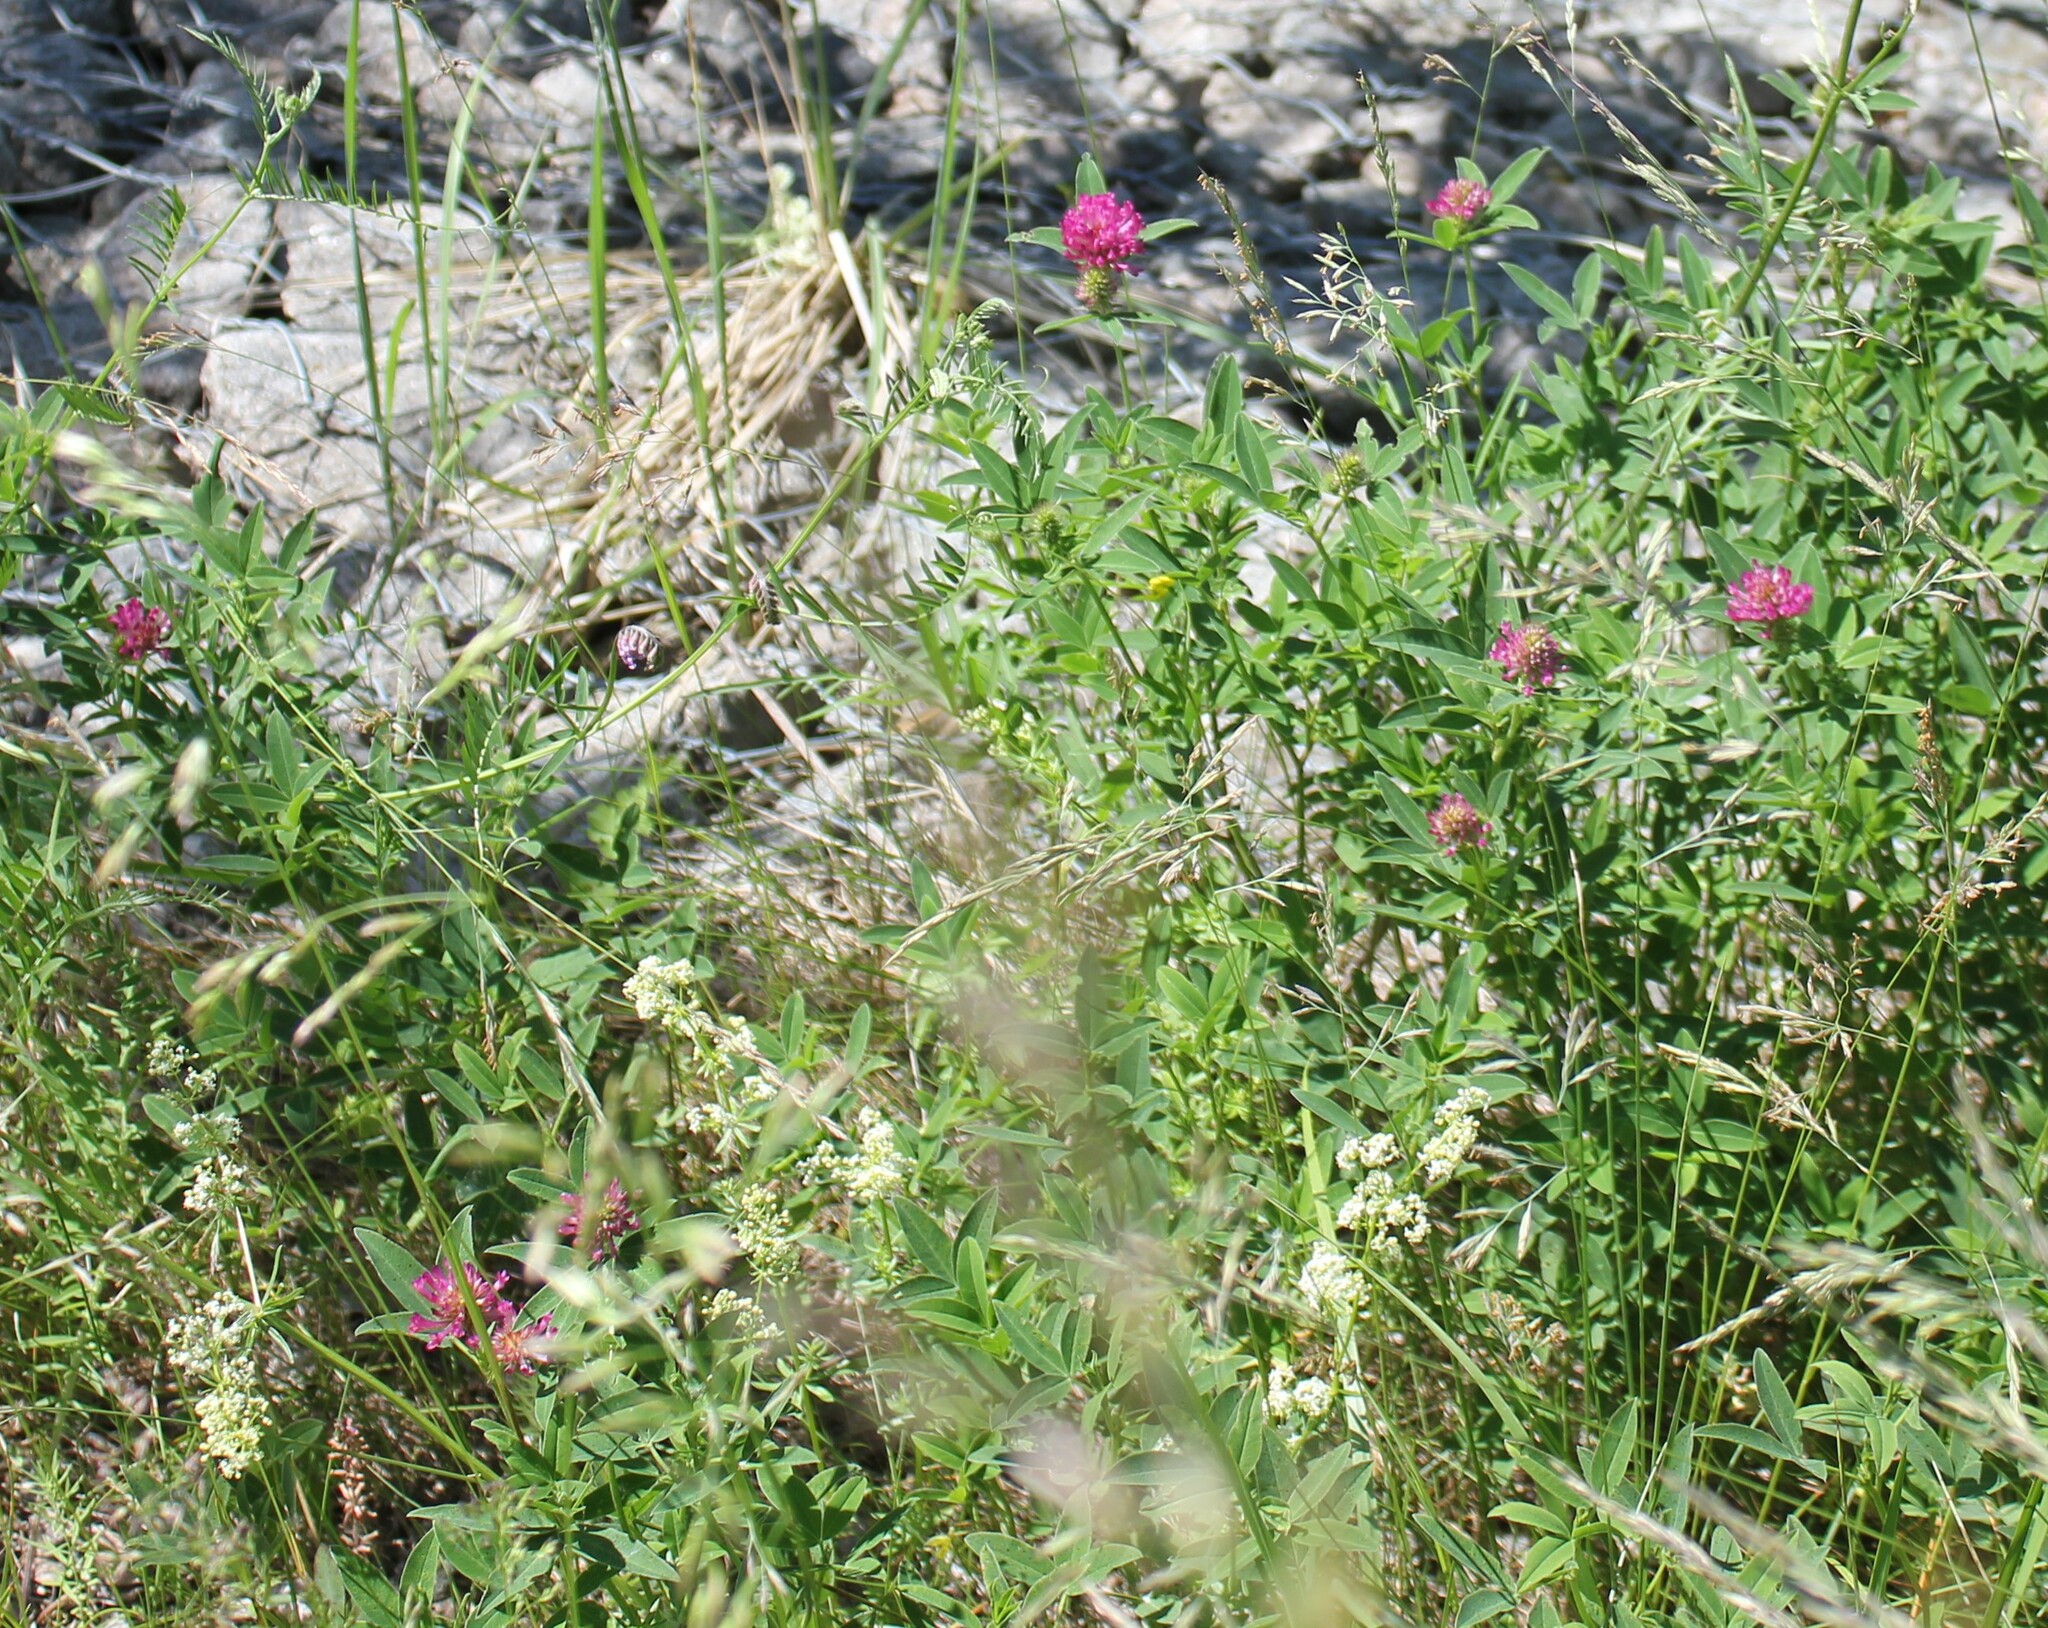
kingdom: Plantae
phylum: Tracheophyta
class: Magnoliopsida
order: Fabales
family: Fabaceae
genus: Trifolium
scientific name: Trifolium medium
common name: Zigzag clover
